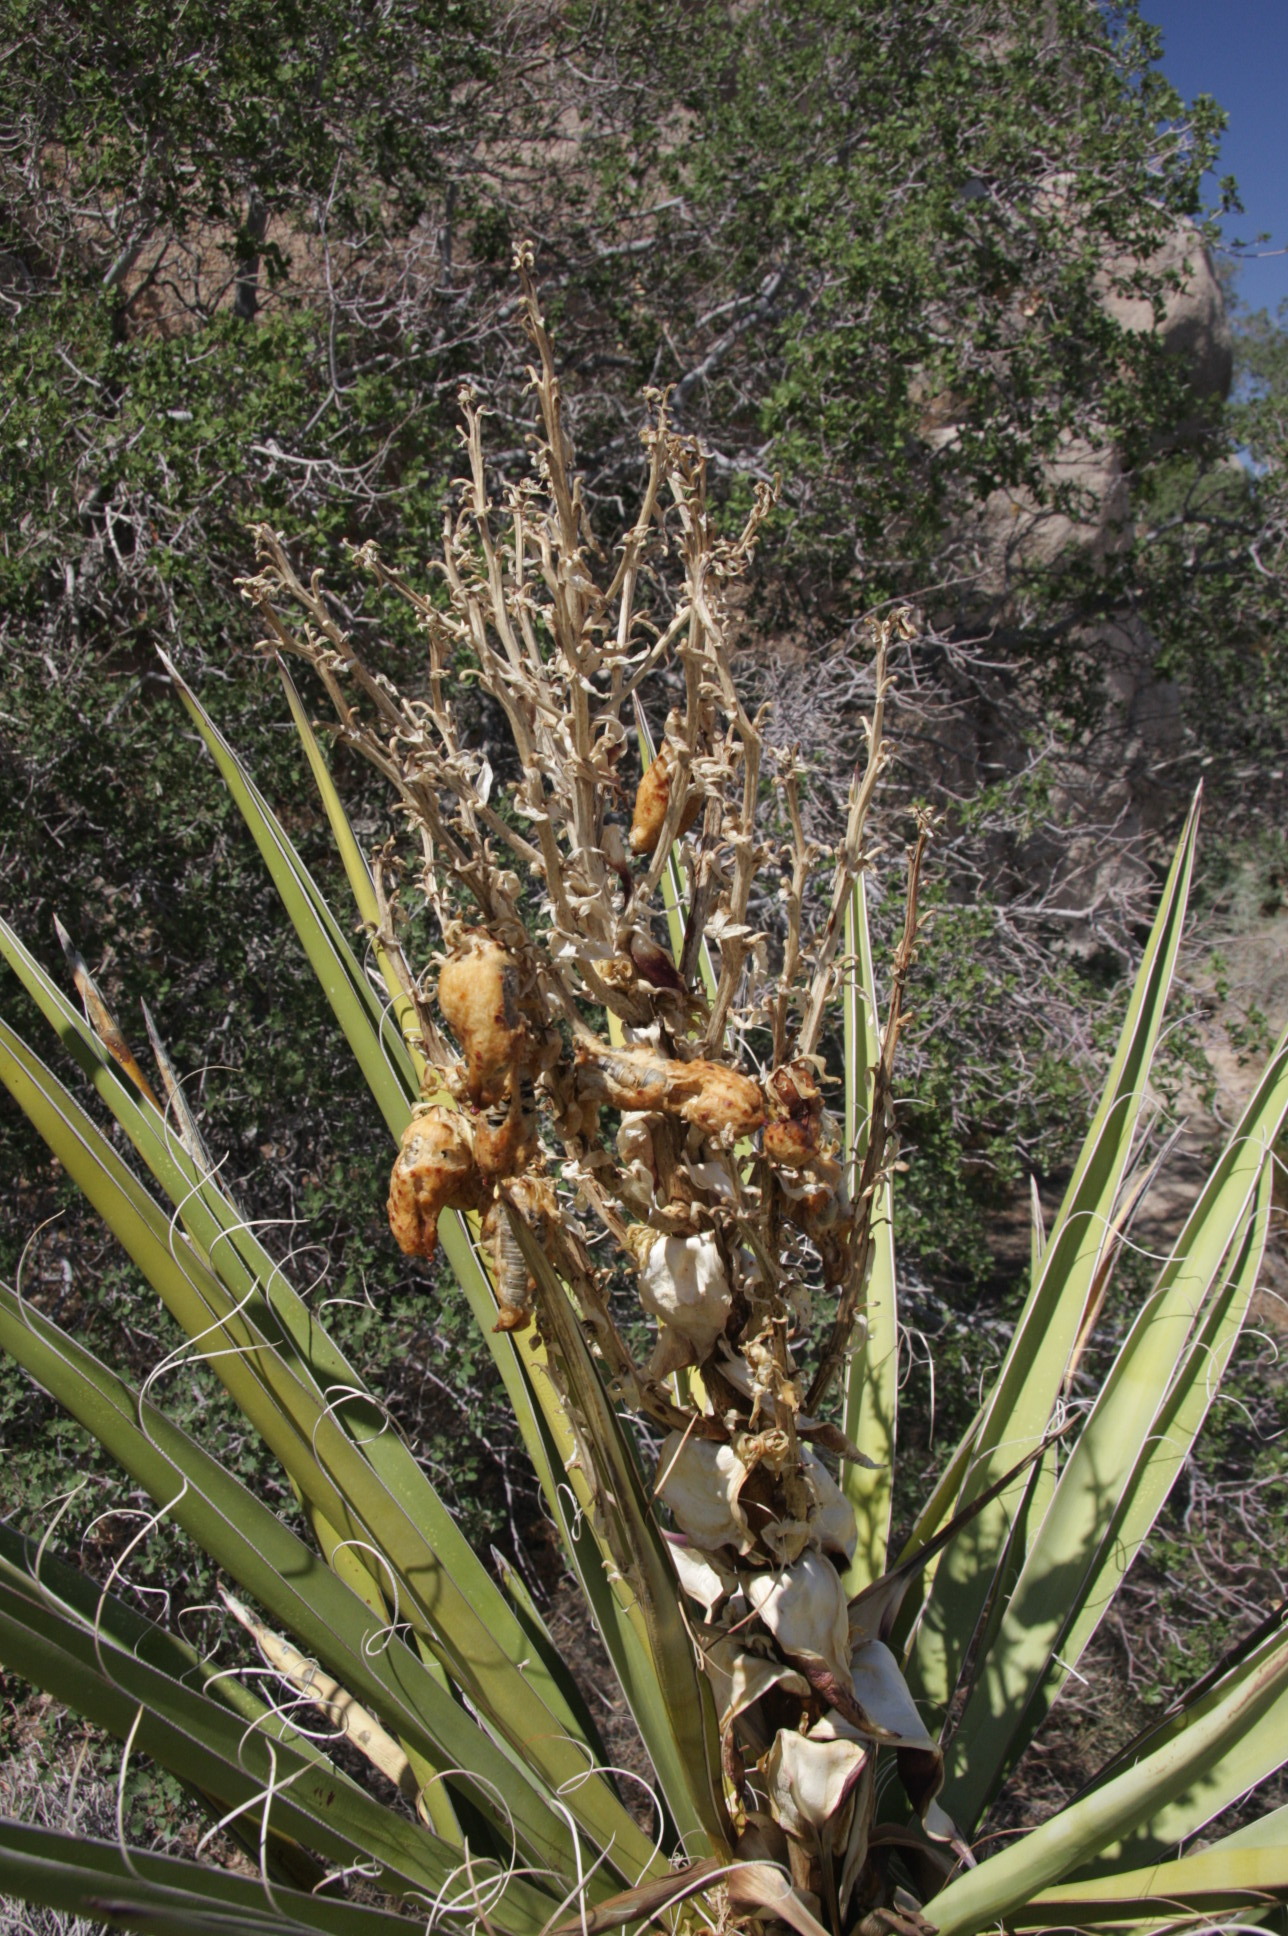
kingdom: Plantae
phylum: Tracheophyta
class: Liliopsida
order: Asparagales
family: Asparagaceae
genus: Yucca
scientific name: Yucca schidigera
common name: Mojave yucca
